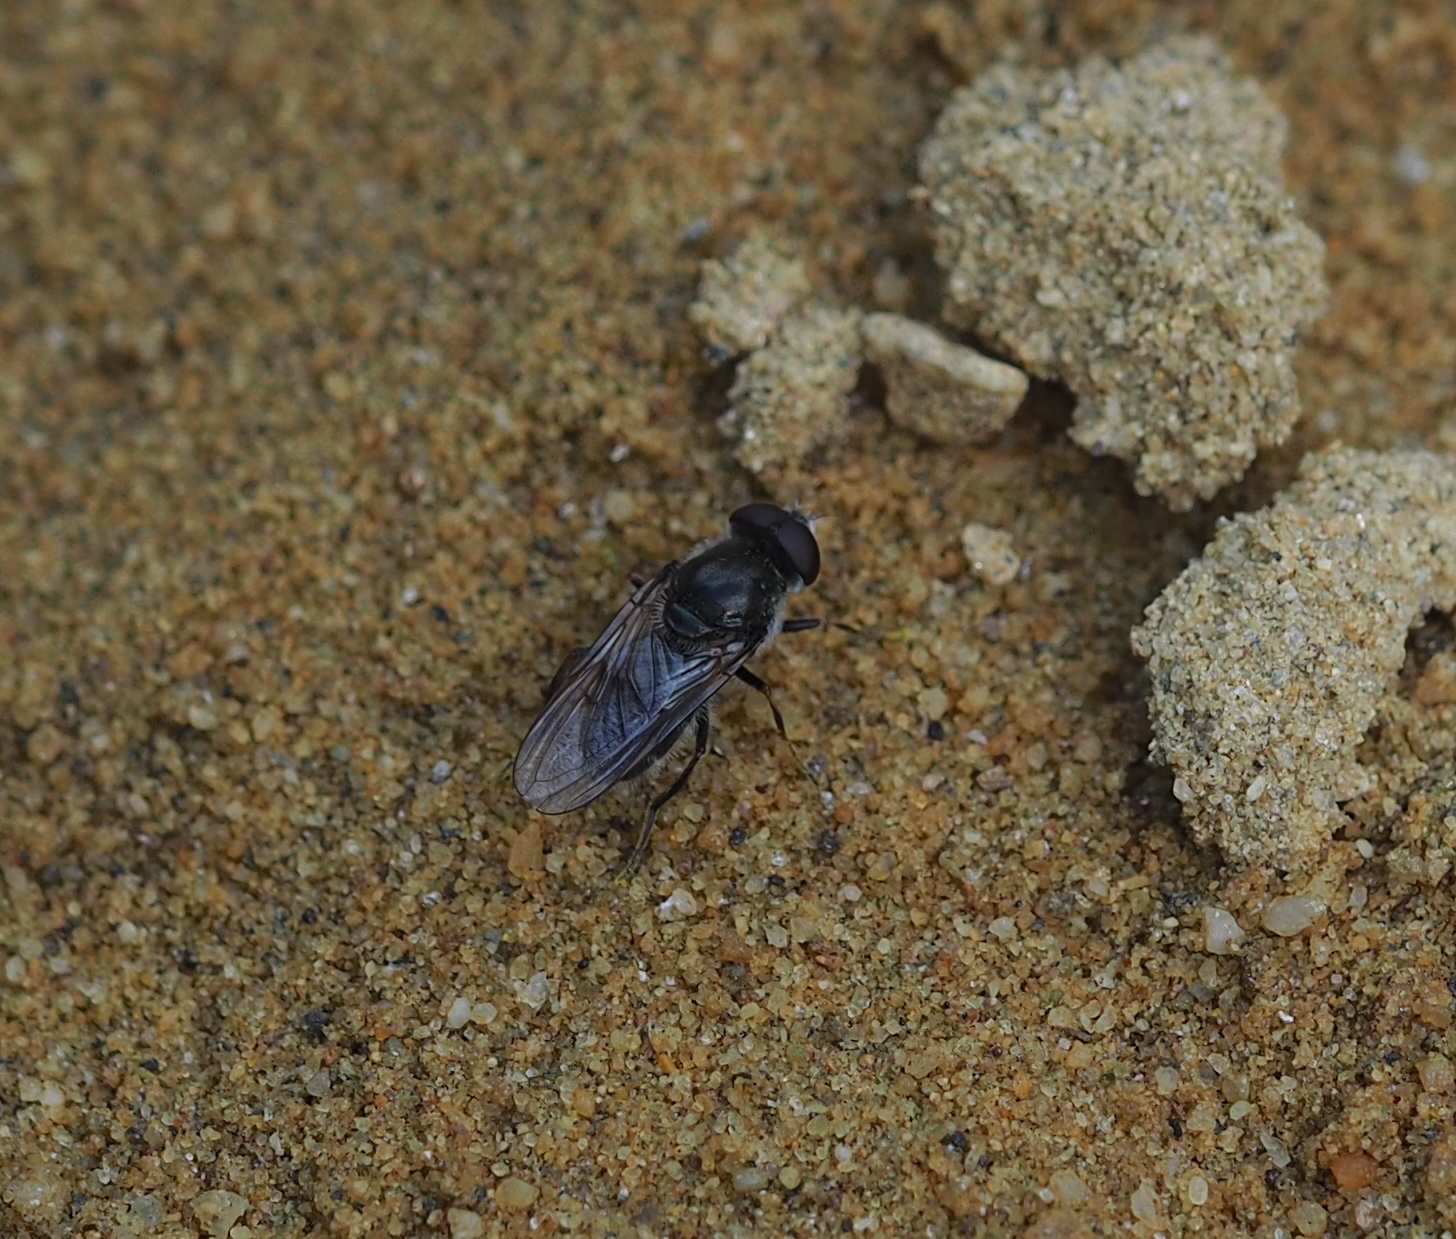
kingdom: Animalia
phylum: Arthropoda
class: Insecta
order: Diptera
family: Syrphidae
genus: Cheilosia
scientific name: Cheilosia caerulescens
